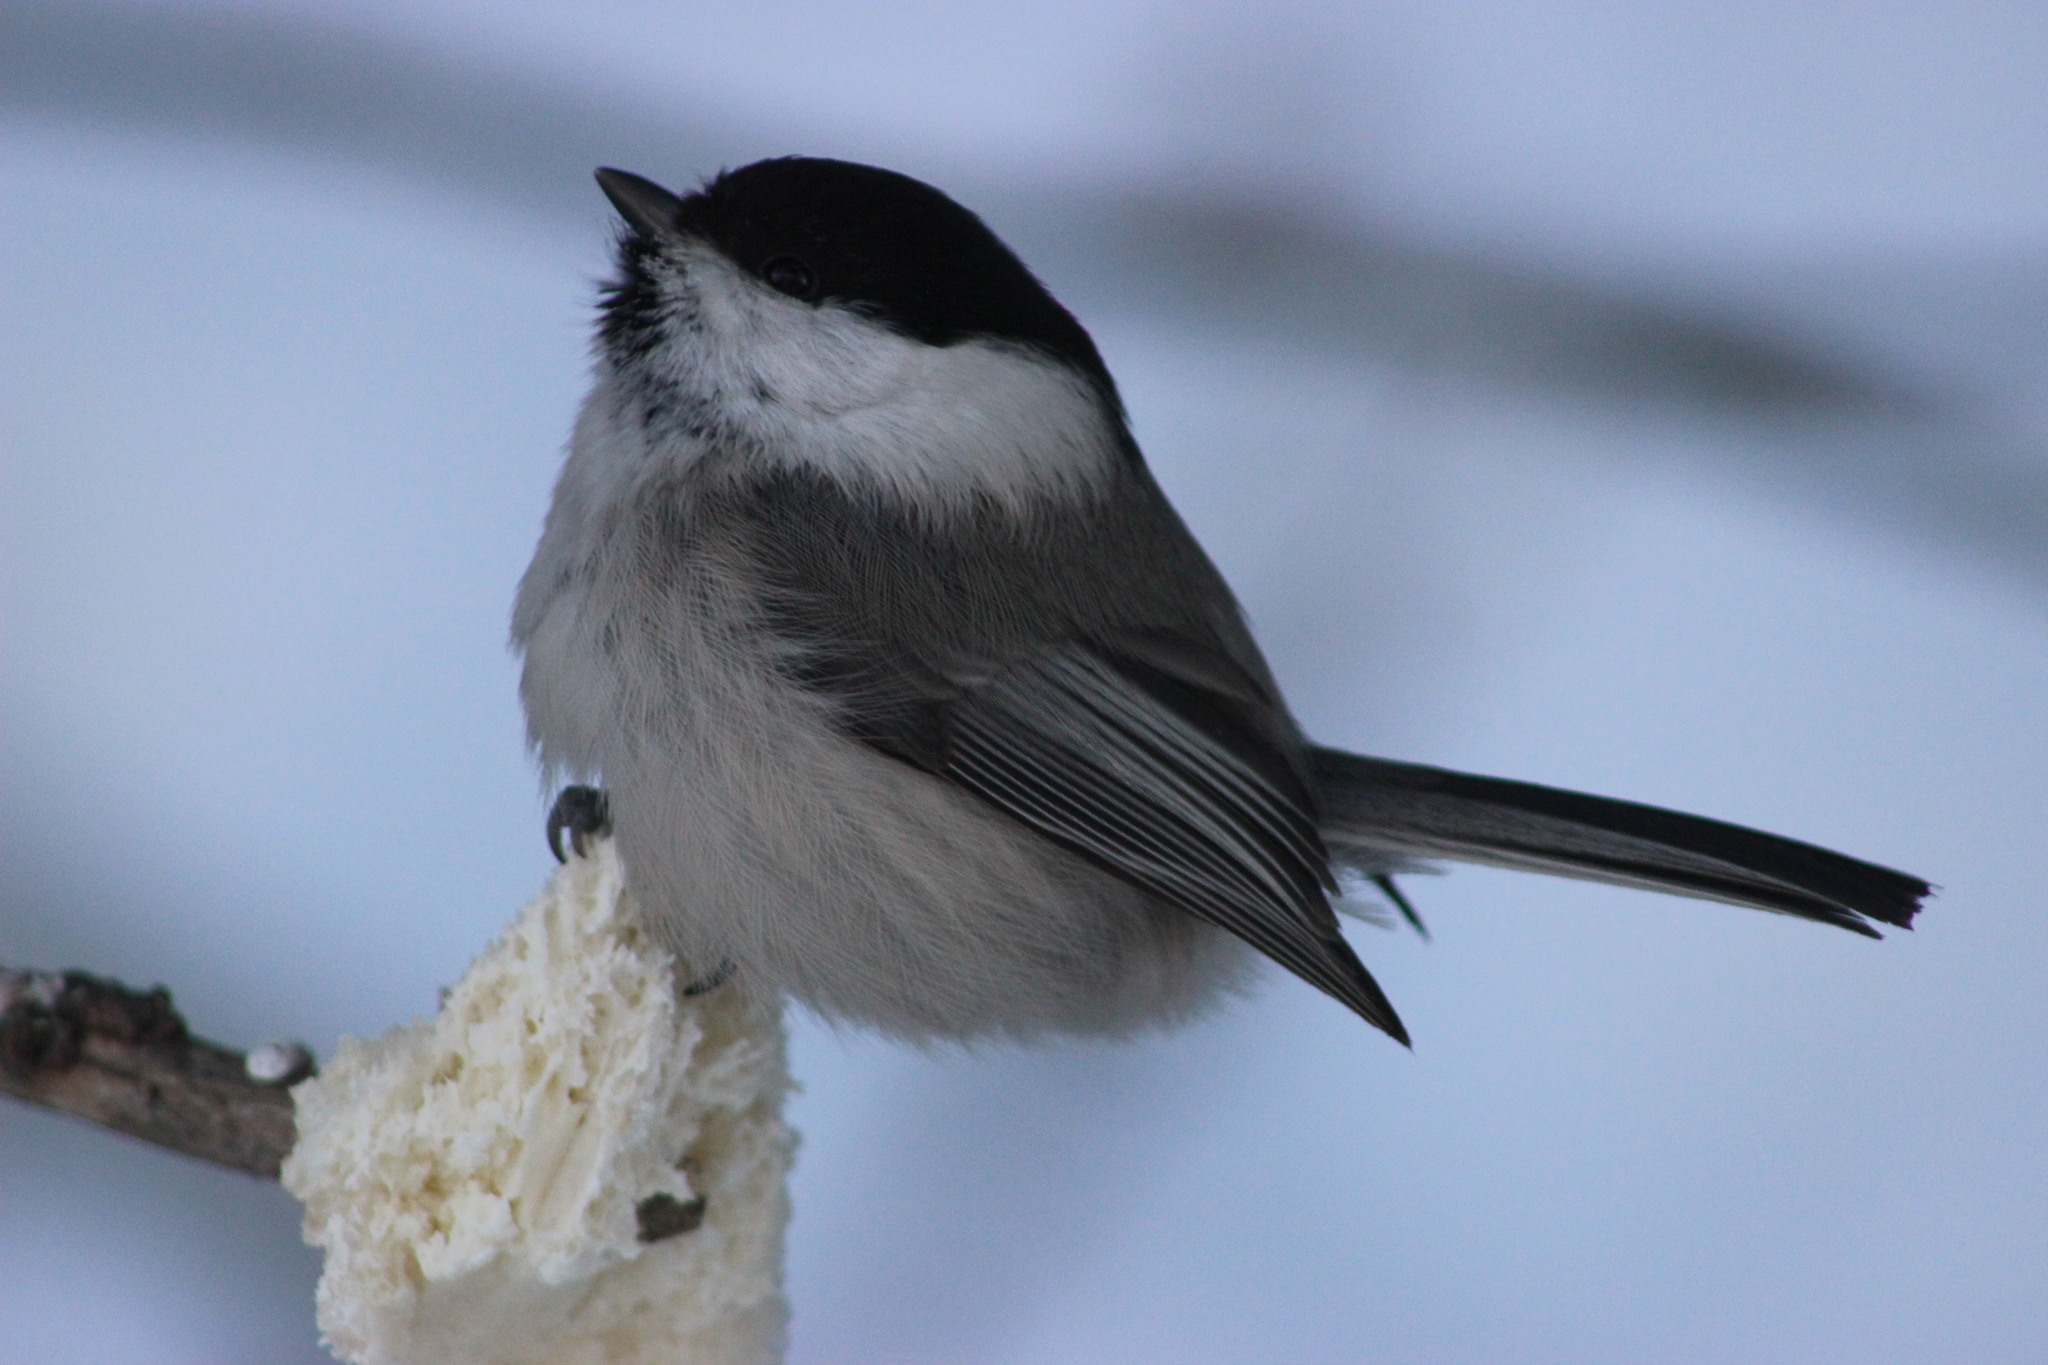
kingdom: Animalia
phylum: Chordata
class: Aves
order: Passeriformes
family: Paridae
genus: Poecile
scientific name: Poecile montanus
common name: Willow tit
